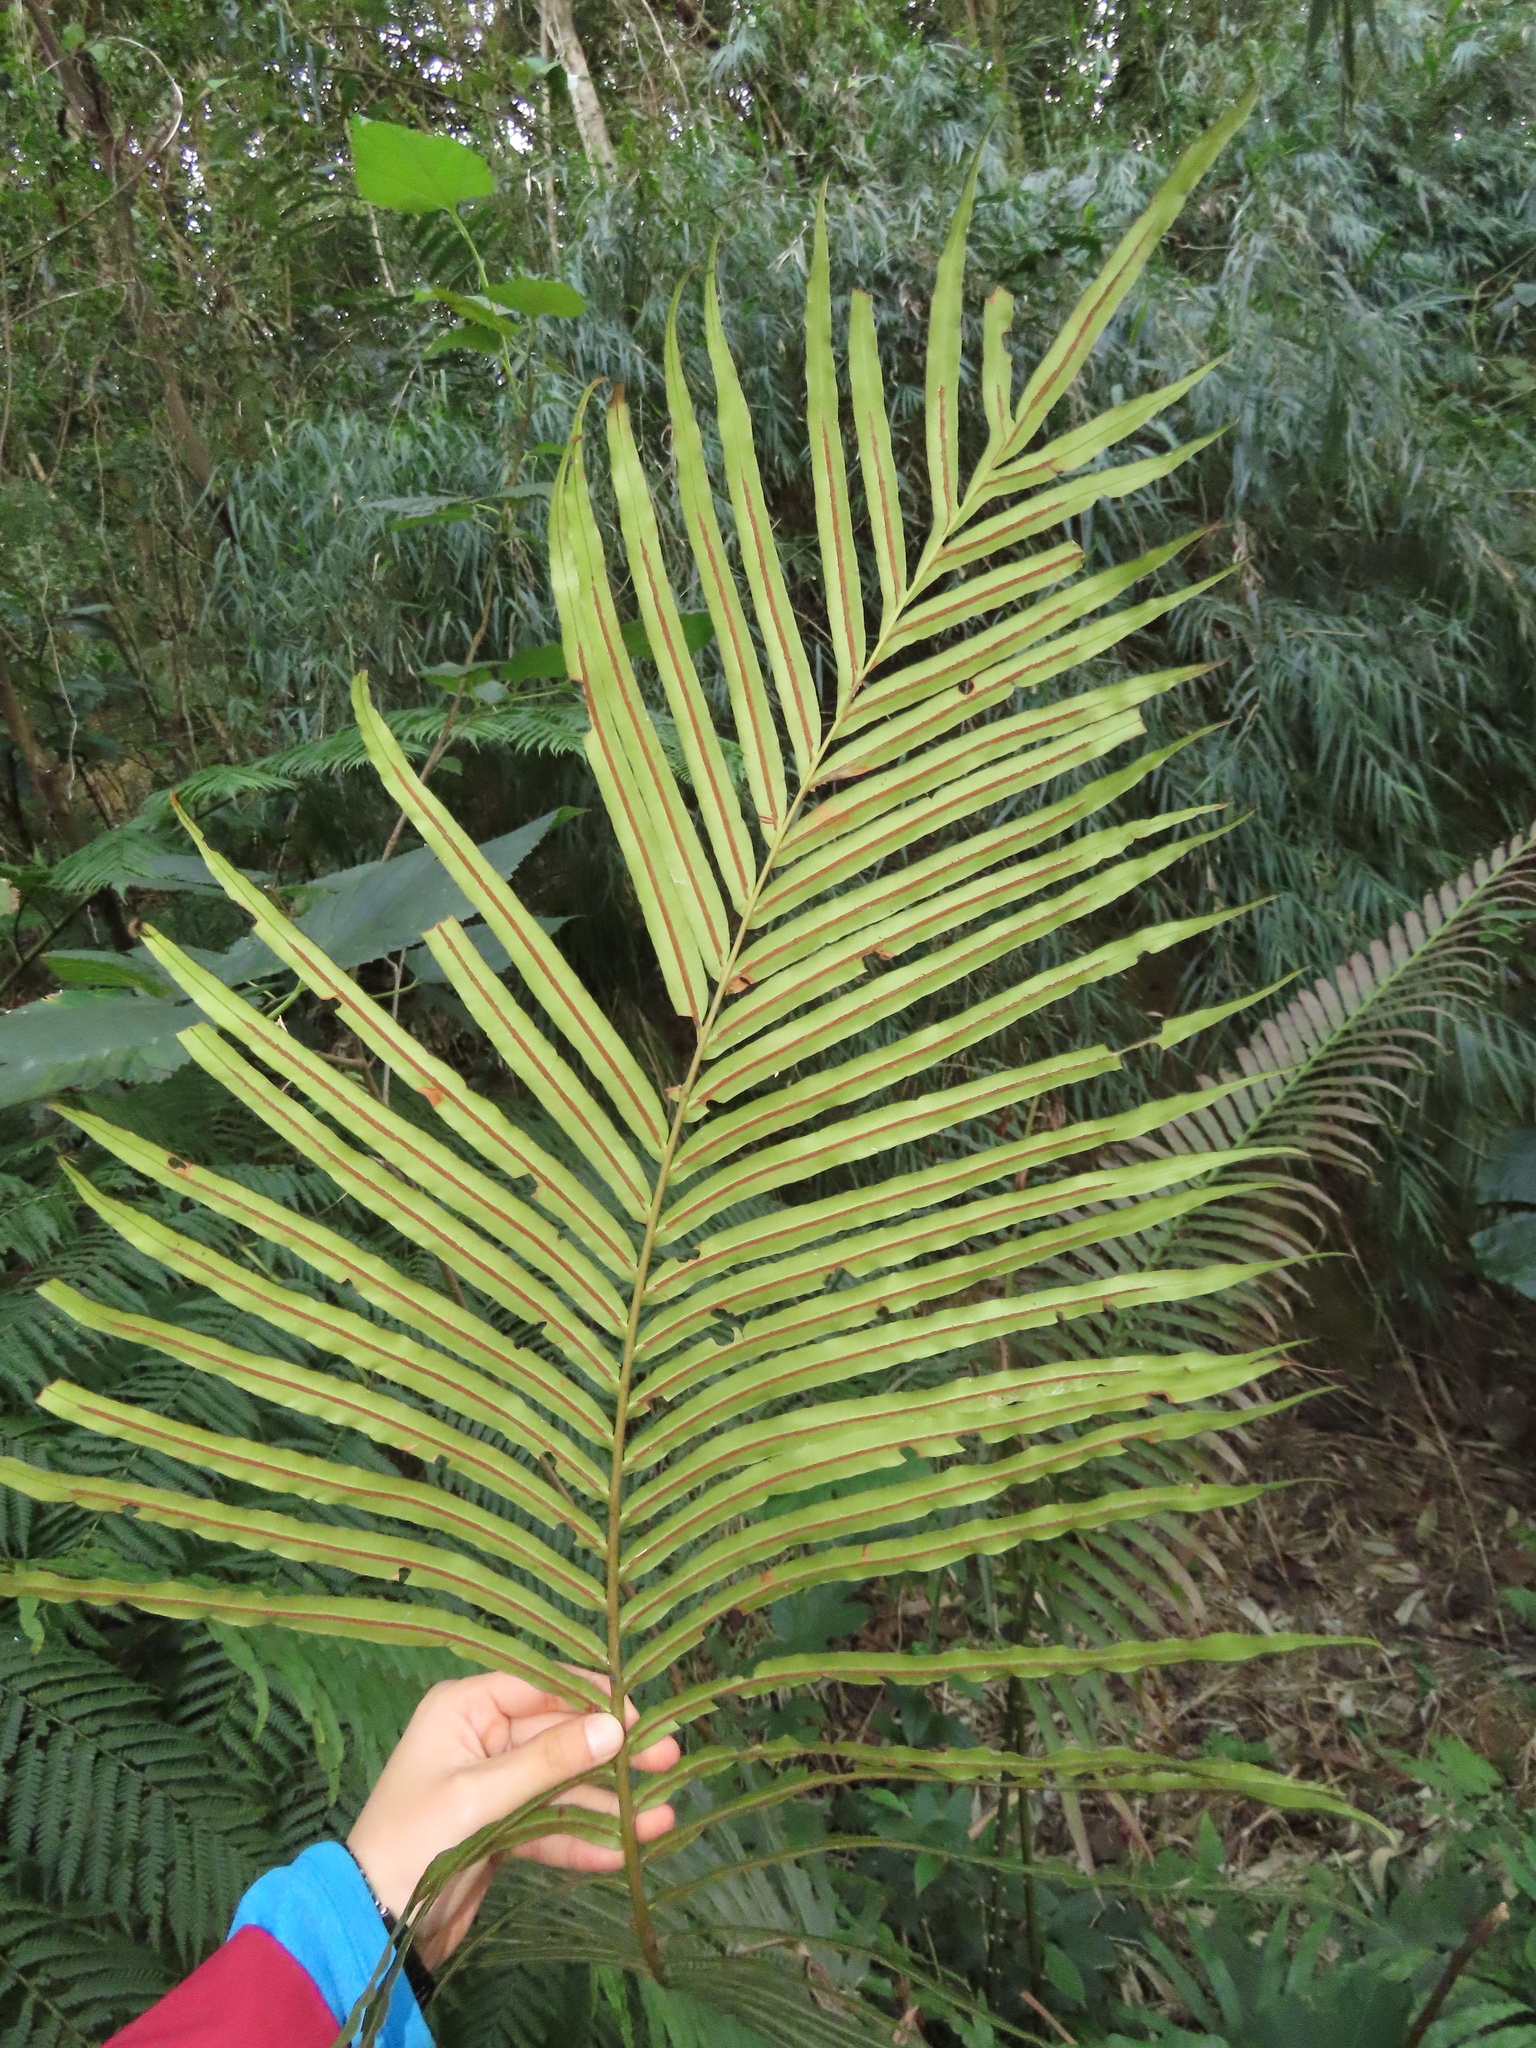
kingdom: Plantae
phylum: Tracheophyta
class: Polypodiopsida
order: Polypodiales
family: Blechnaceae
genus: Blechnopsis
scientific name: Blechnopsis orientalis
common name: Oriental blechnum
